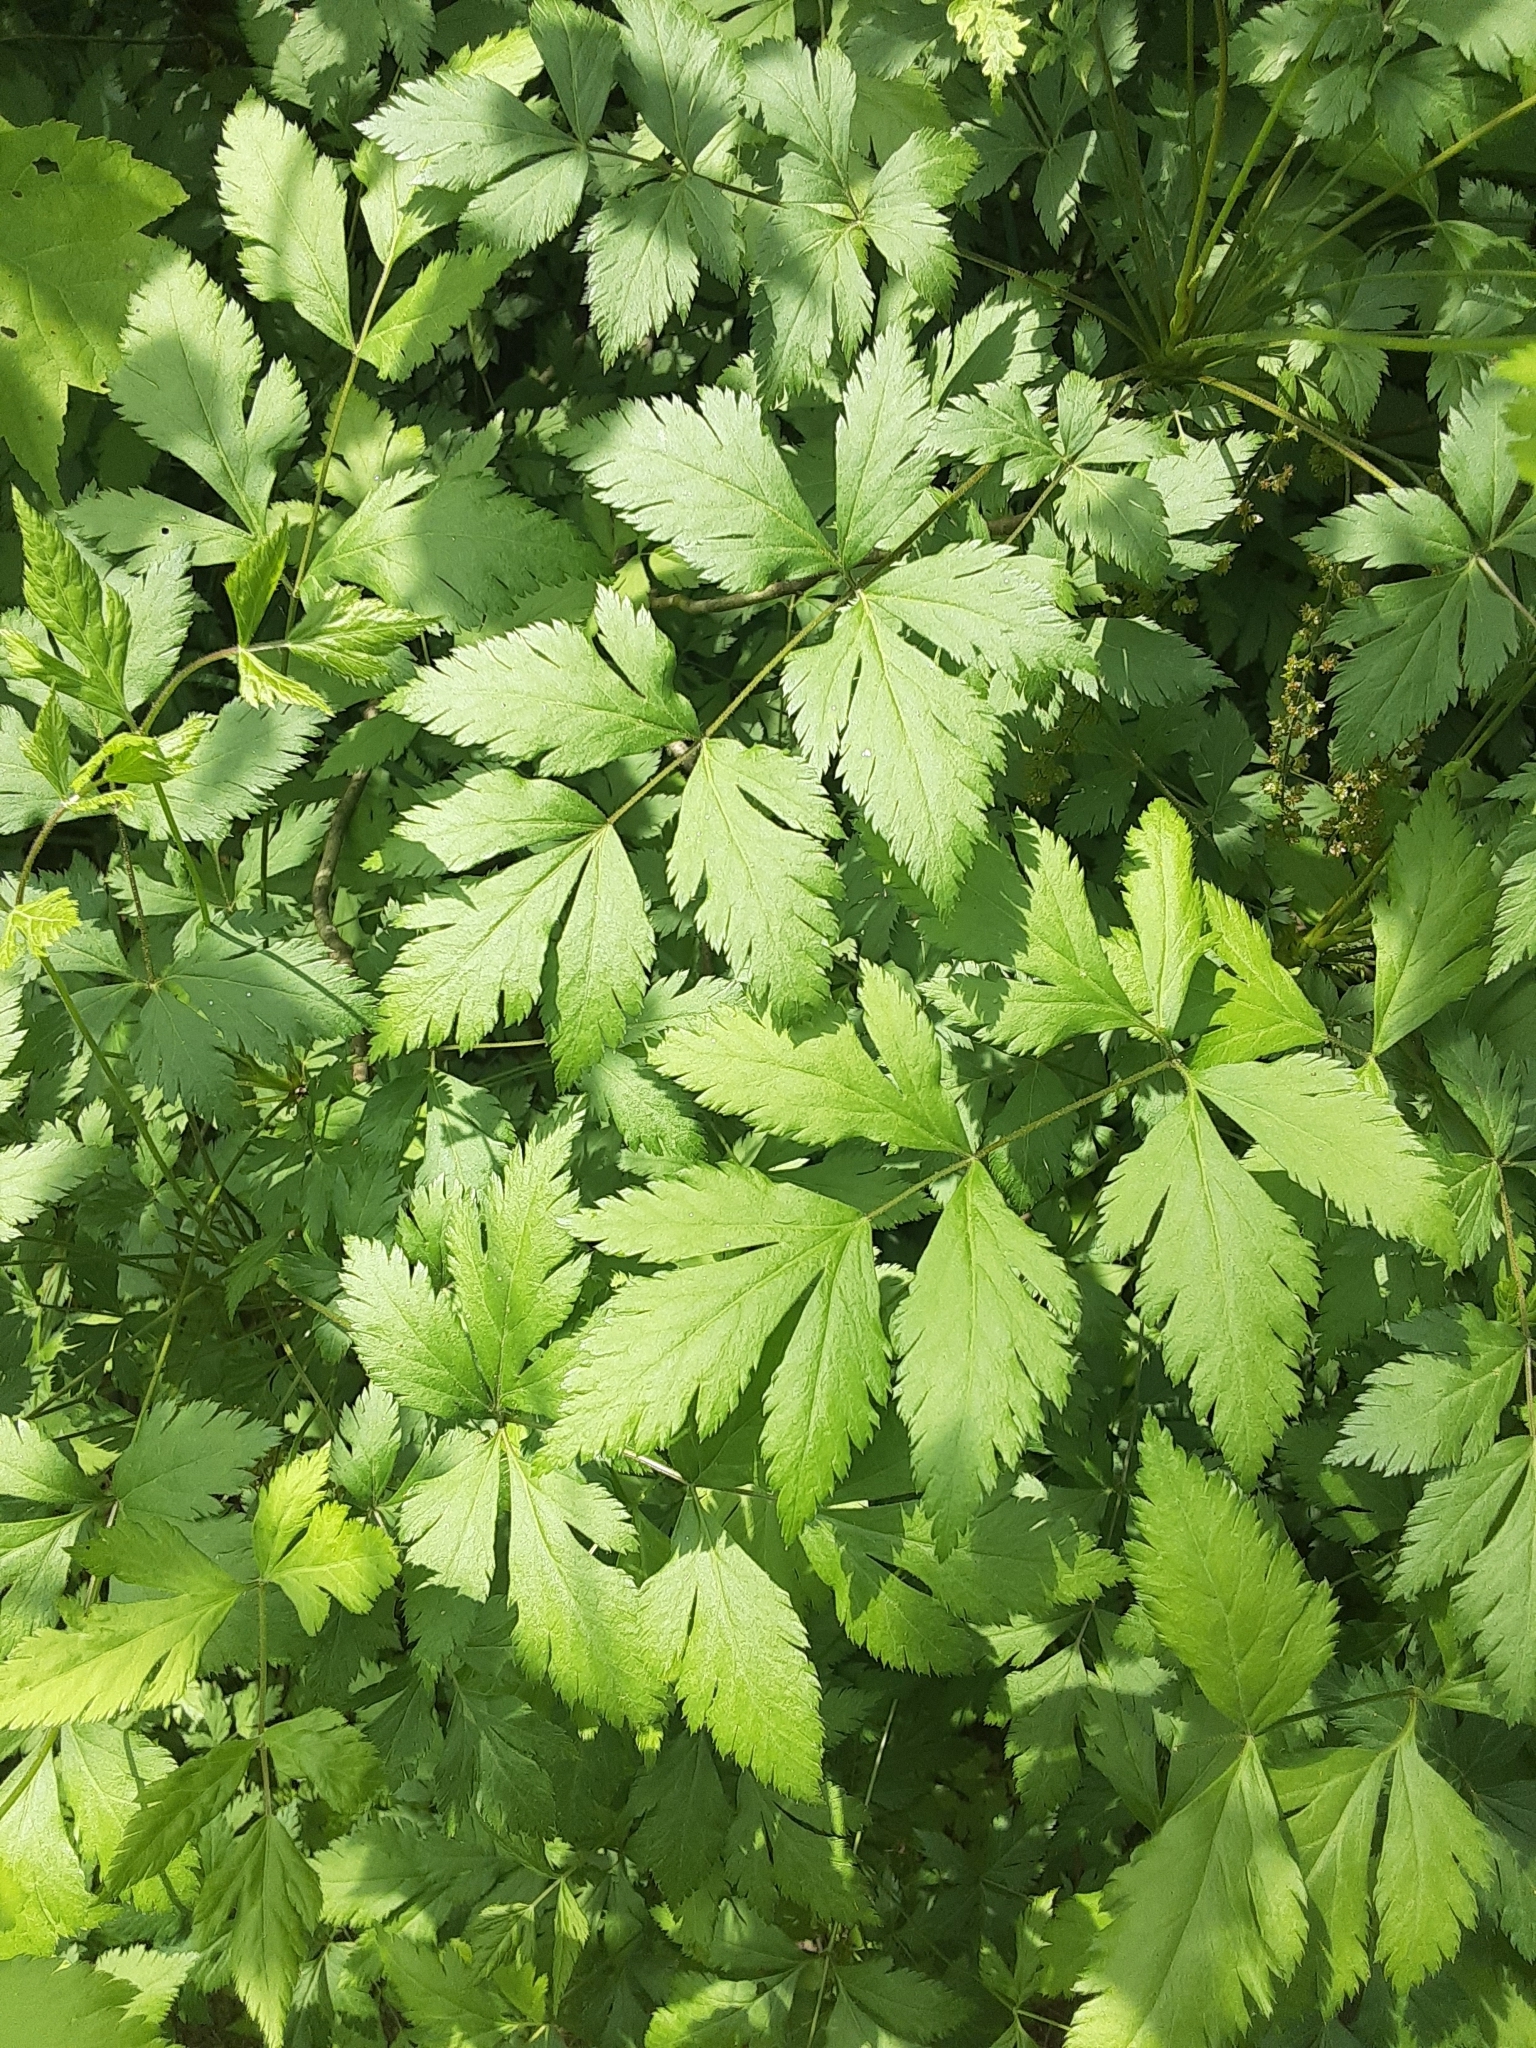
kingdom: Plantae
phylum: Tracheophyta
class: Magnoliopsida
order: Ranunculales
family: Ranunculaceae
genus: Xanthorhiza
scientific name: Xanthorhiza simplicissima
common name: Yellowroot
